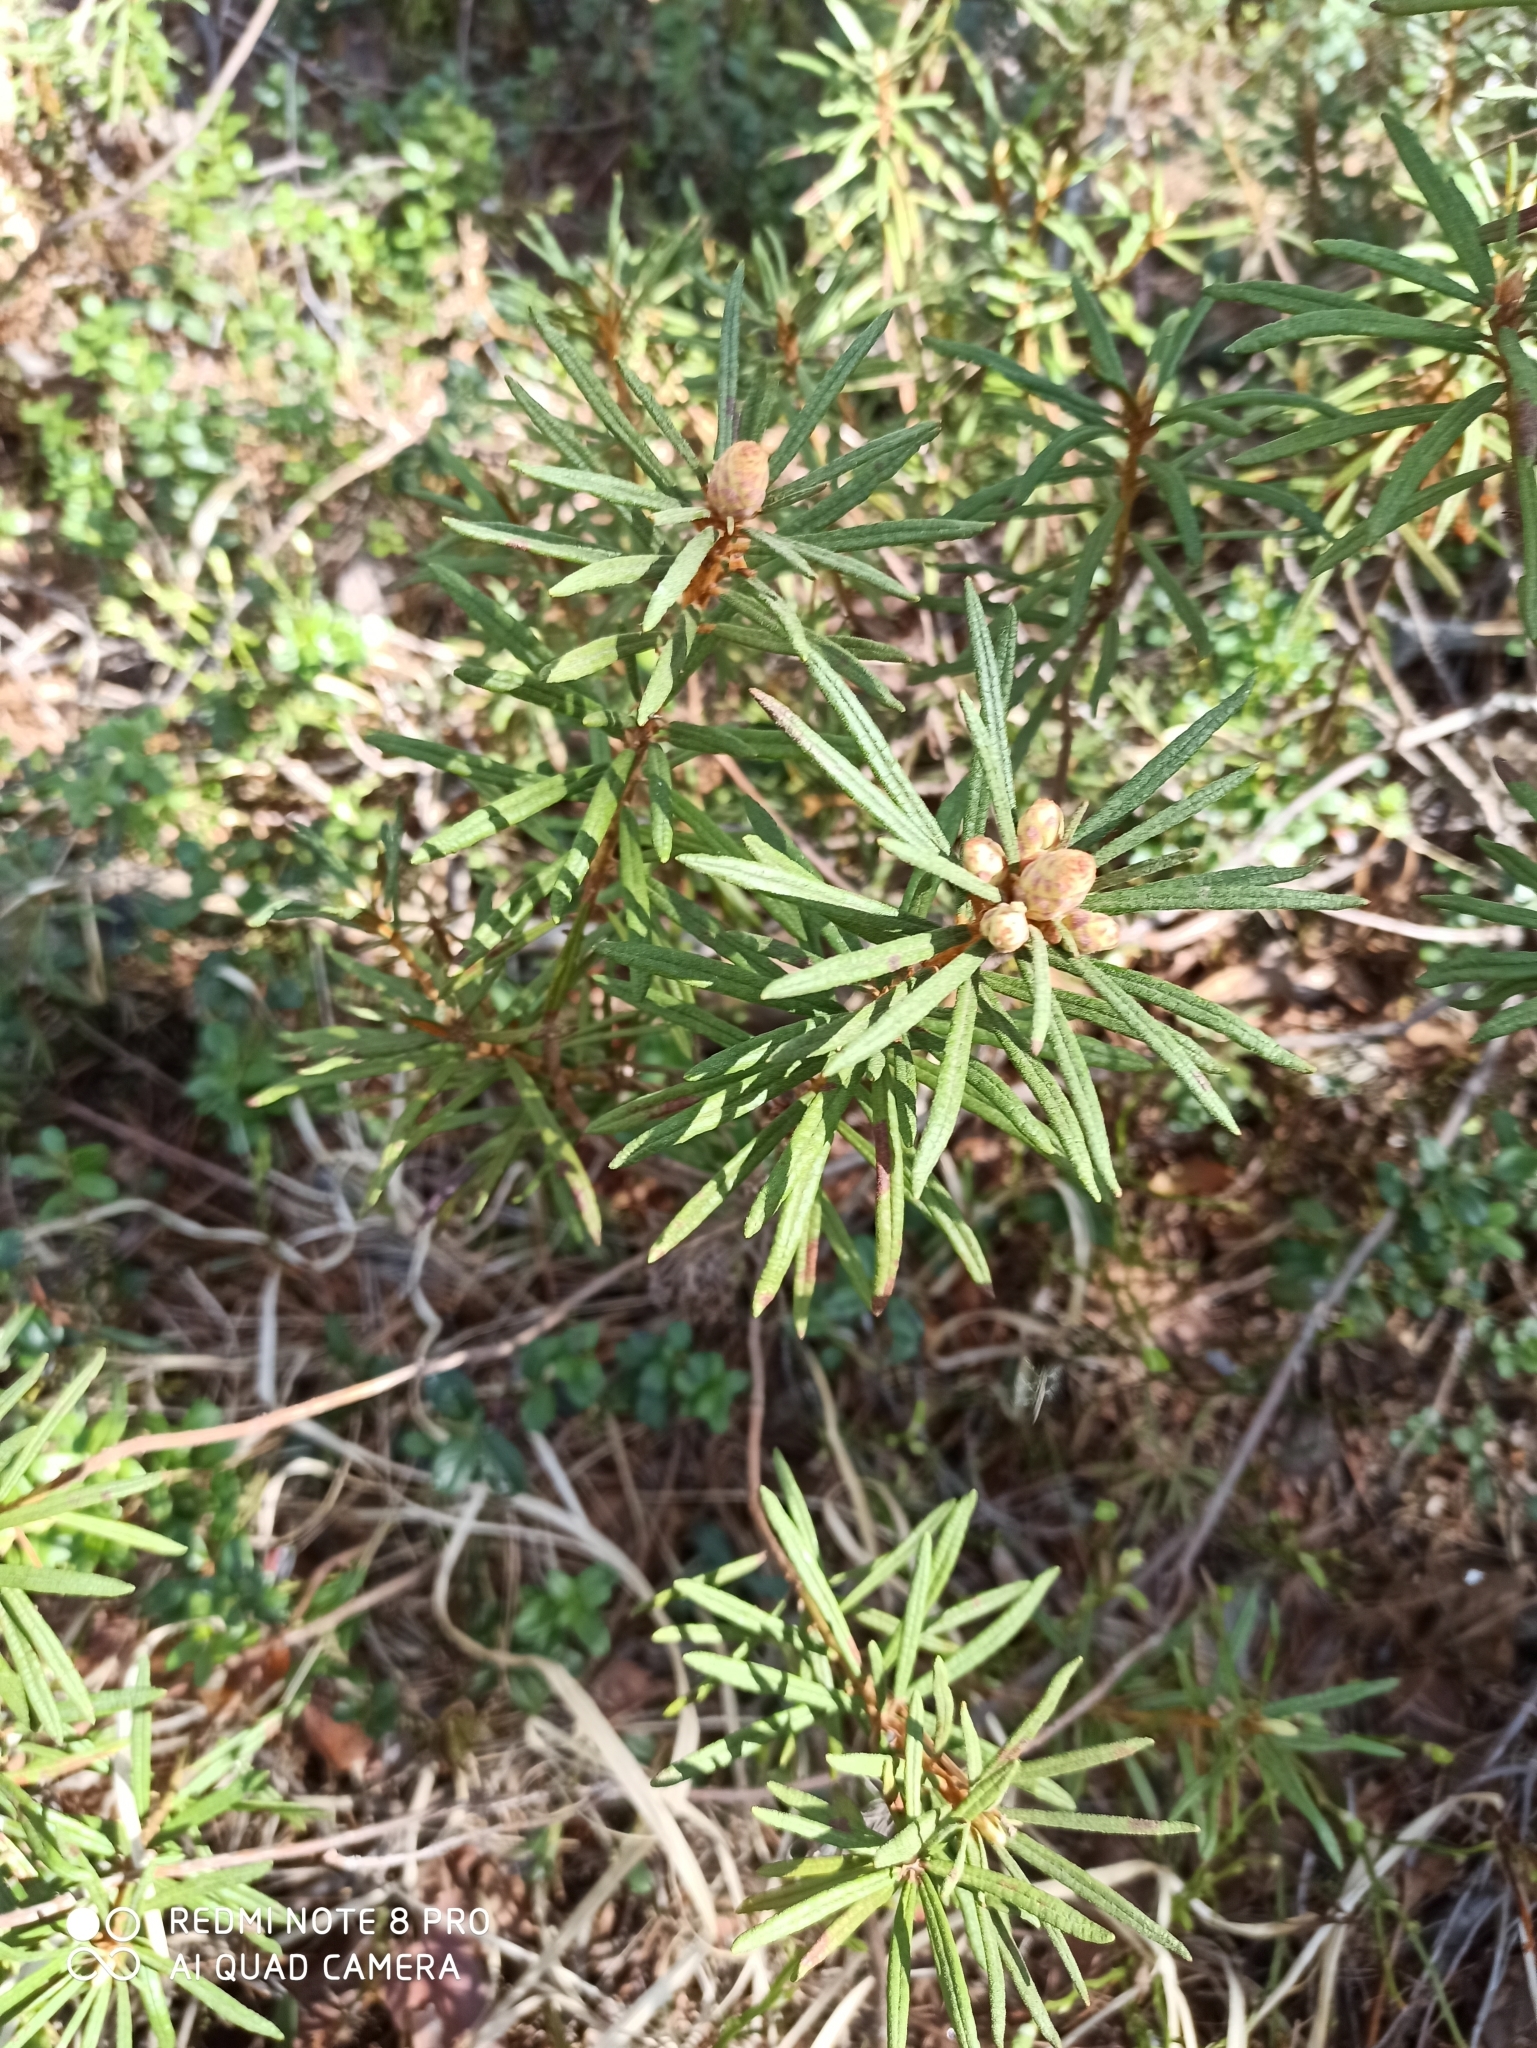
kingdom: Plantae
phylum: Tracheophyta
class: Magnoliopsida
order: Ericales
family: Ericaceae
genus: Rhododendron
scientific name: Rhododendron tomentosum
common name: Marsh labrador tea
